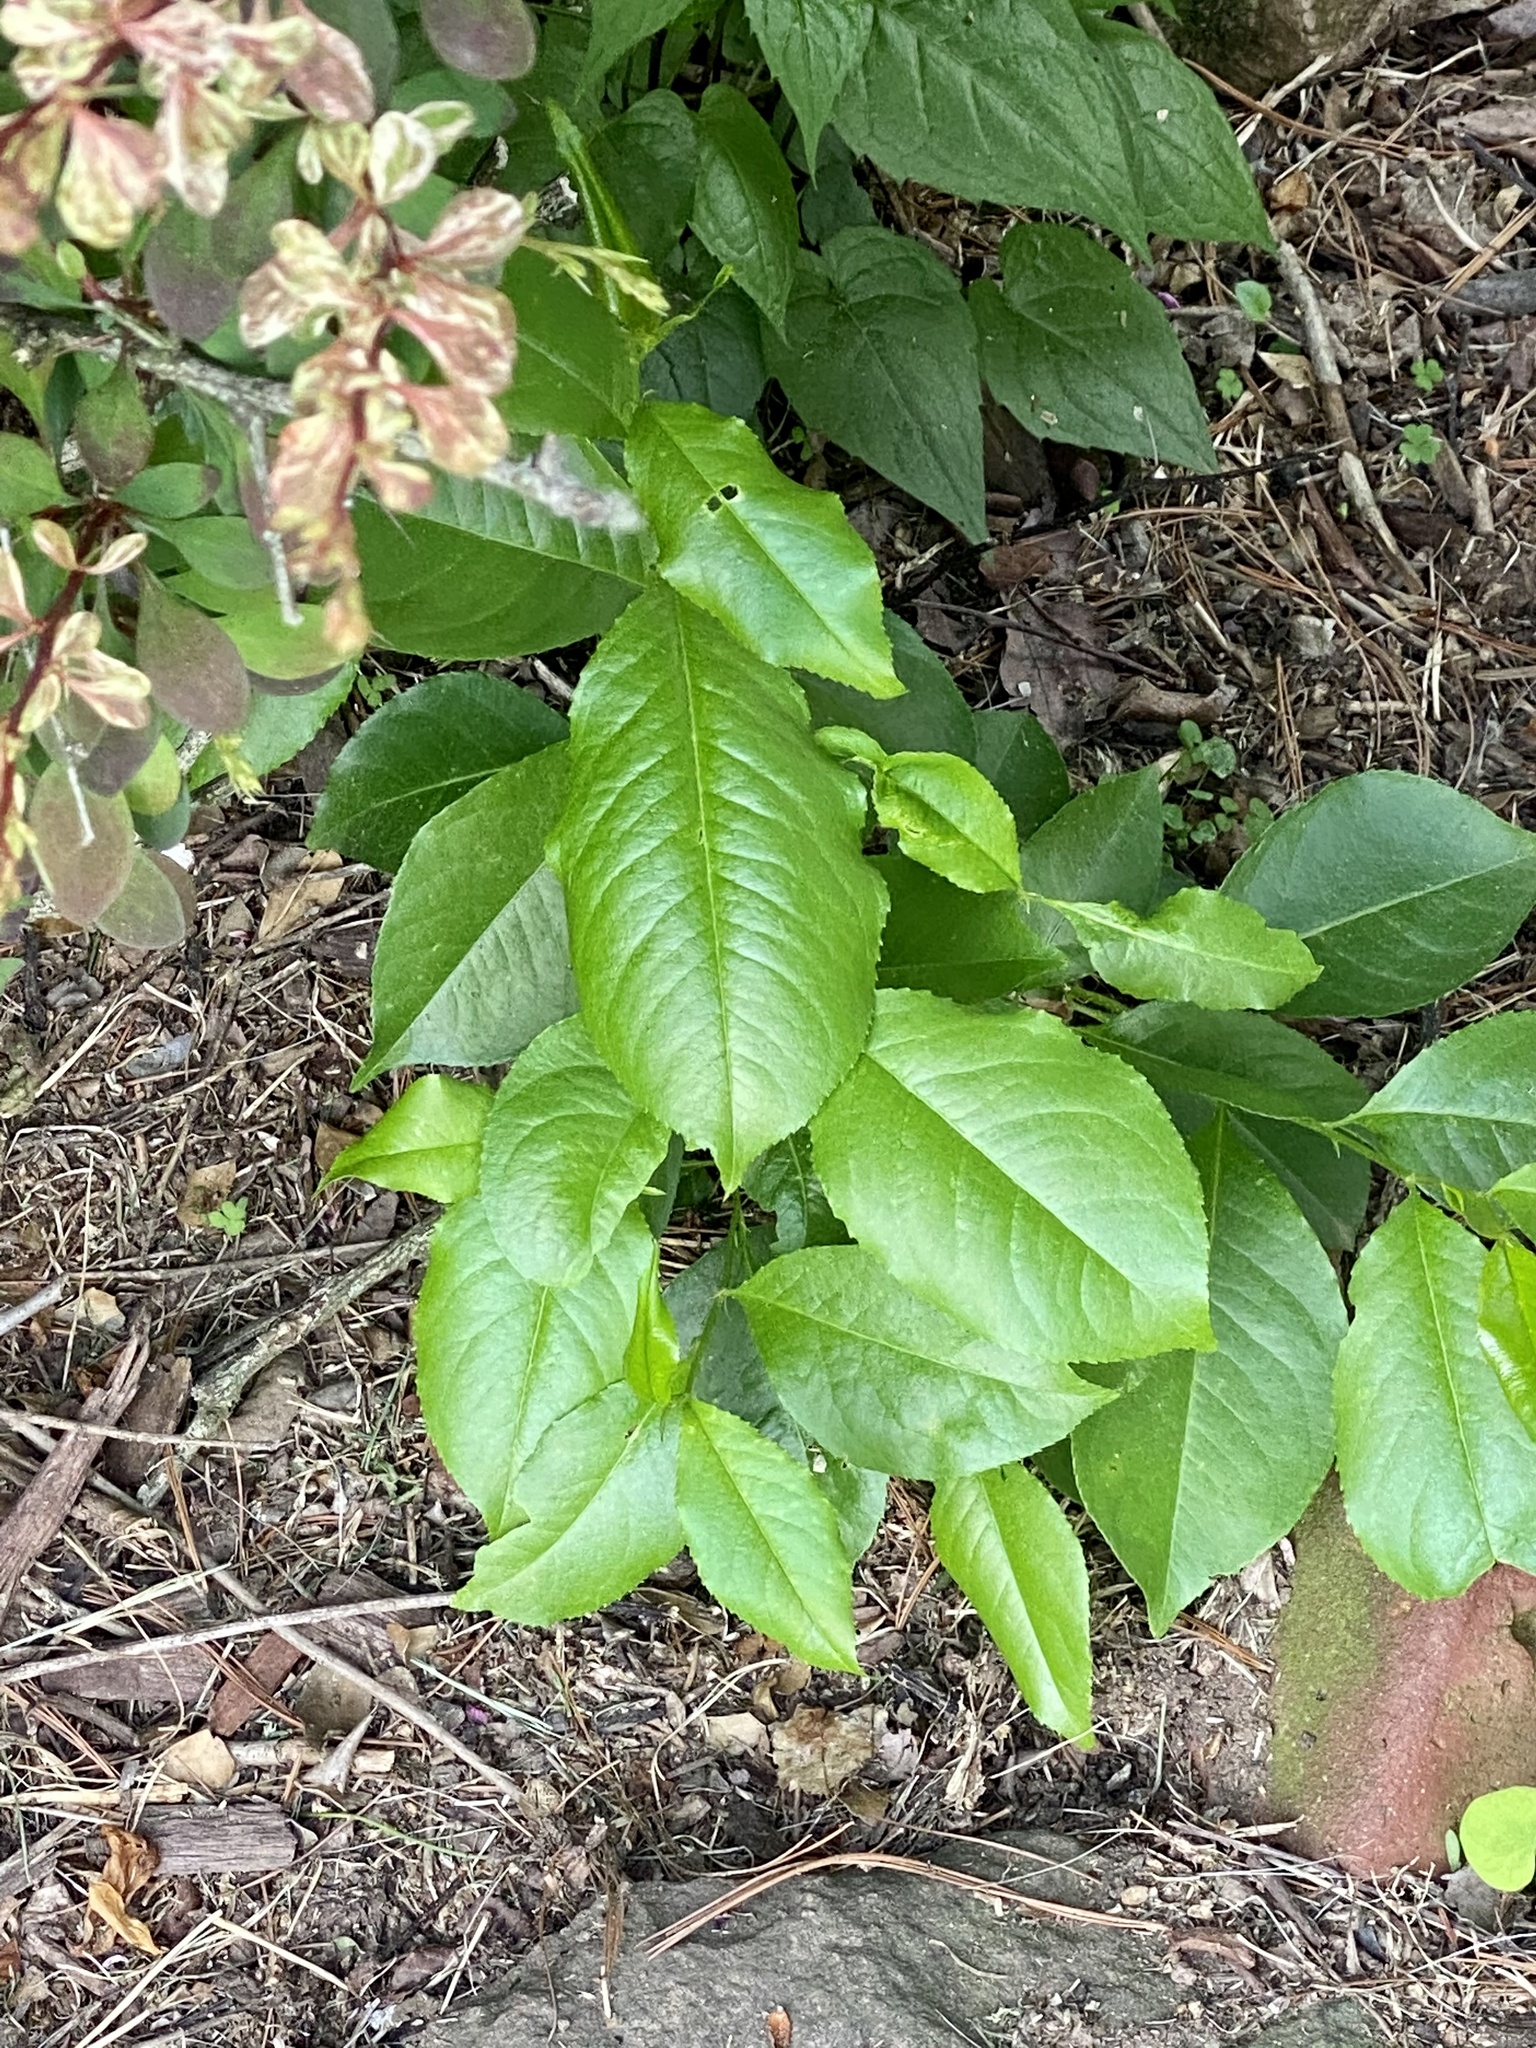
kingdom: Plantae
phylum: Tracheophyta
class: Magnoliopsida
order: Rosales
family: Rosaceae
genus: Prunus
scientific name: Prunus serotina
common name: Black cherry
